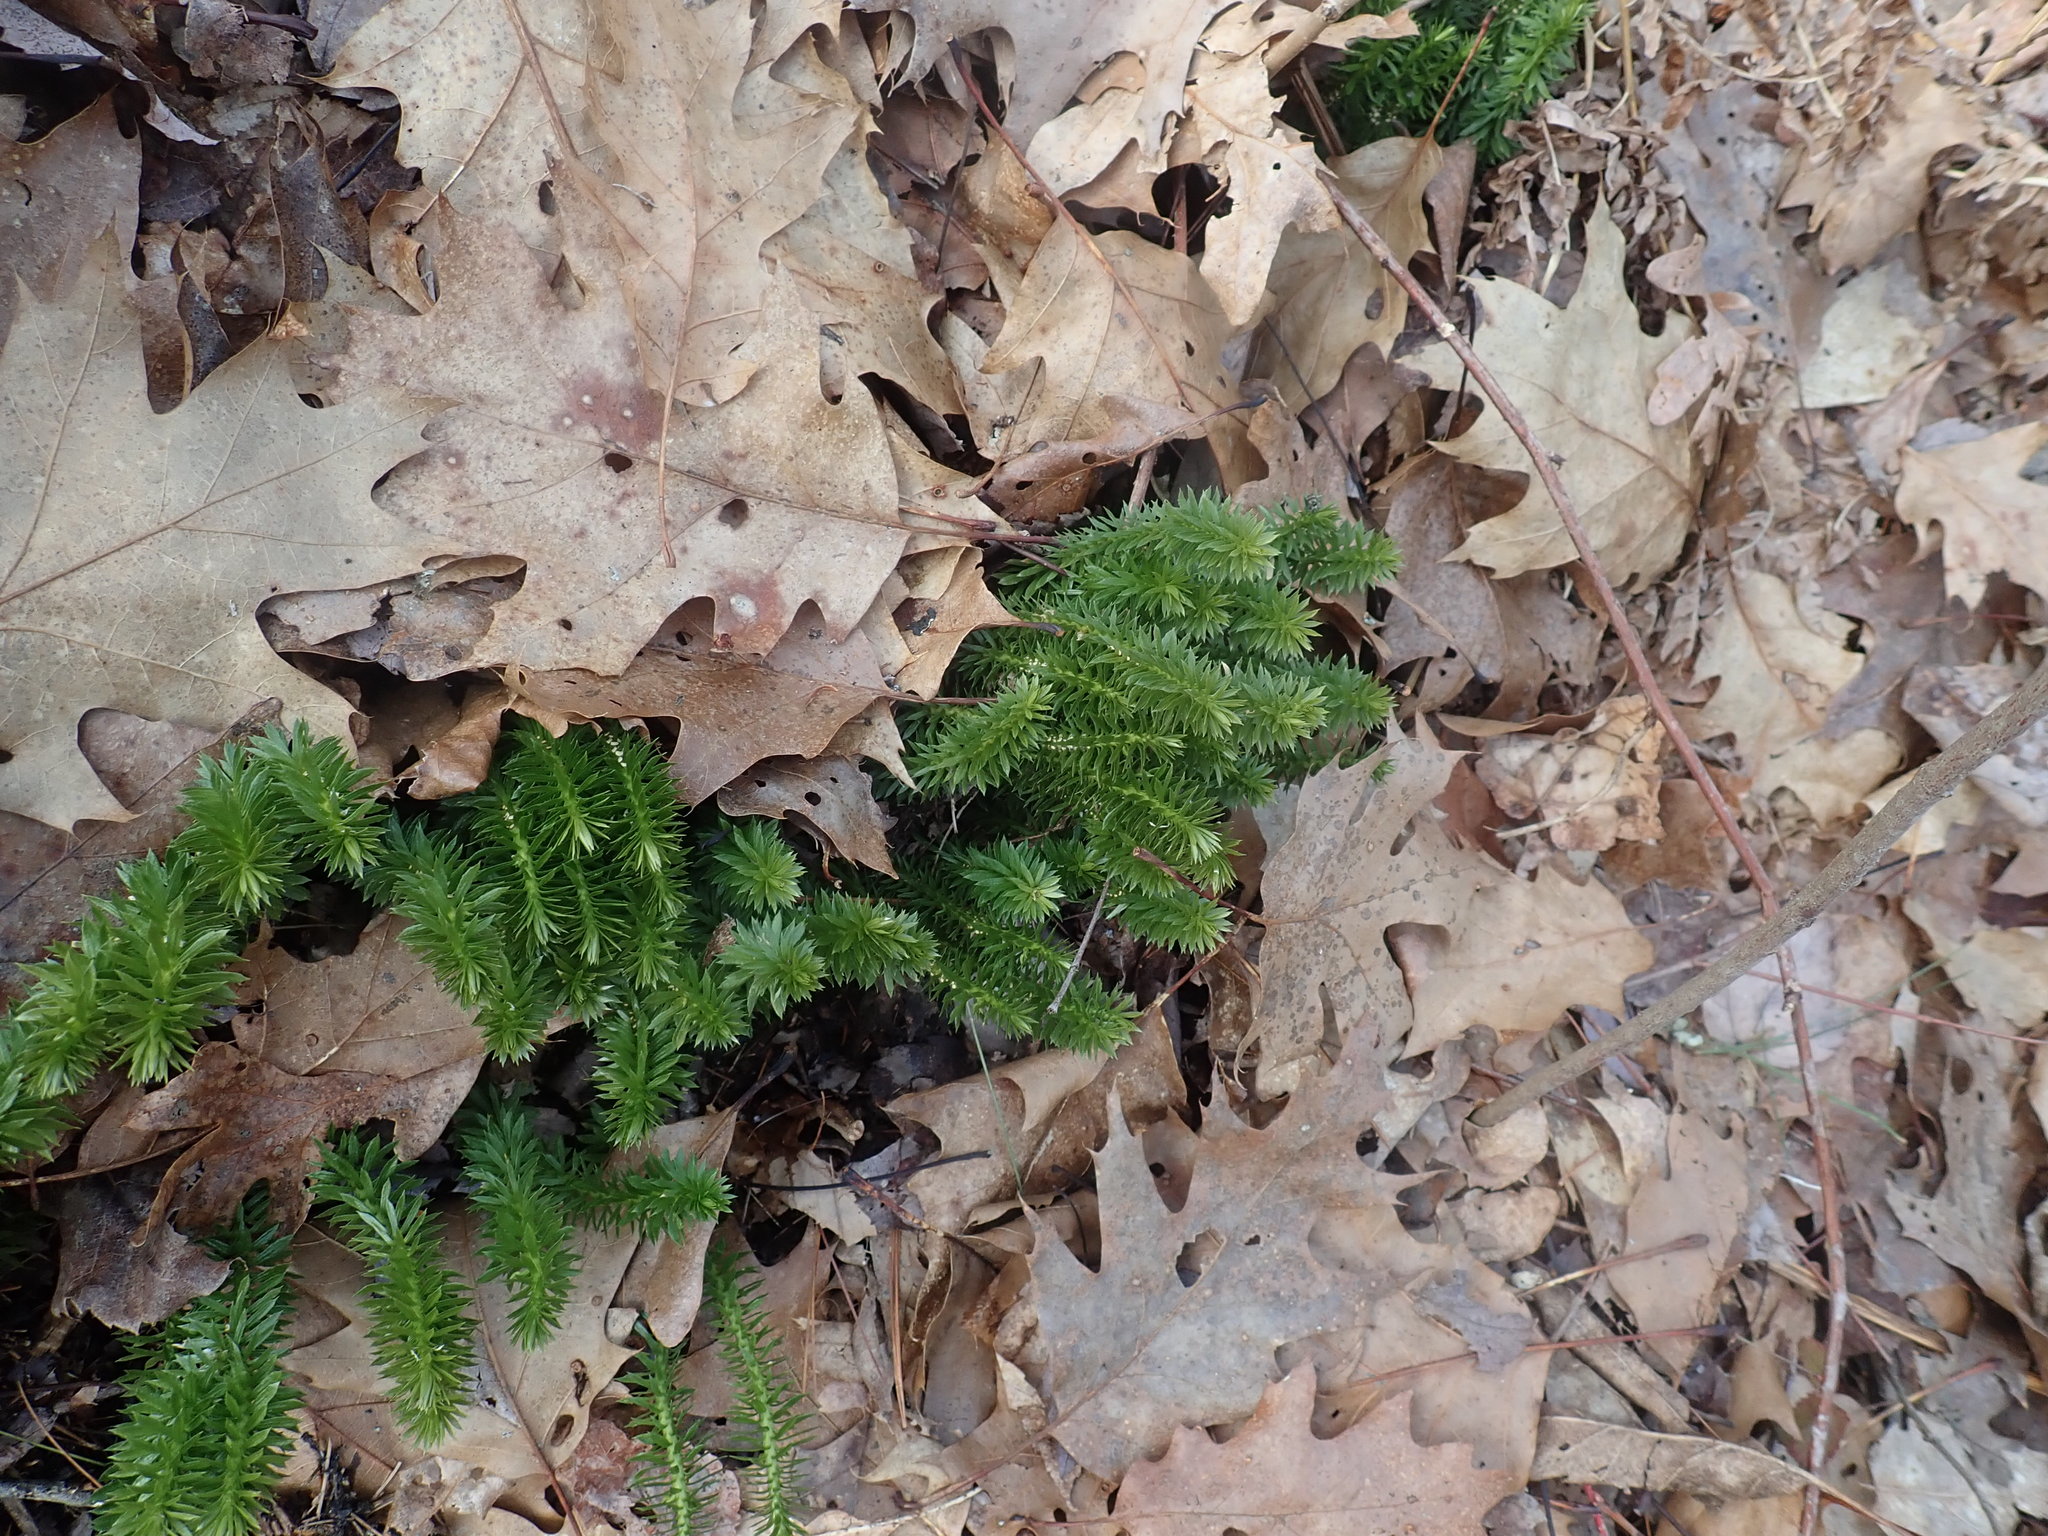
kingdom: Plantae
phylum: Tracheophyta
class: Lycopodiopsida
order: Lycopodiales
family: Lycopodiaceae
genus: Huperzia
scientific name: Huperzia lucidula
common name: Shining clubmoss
